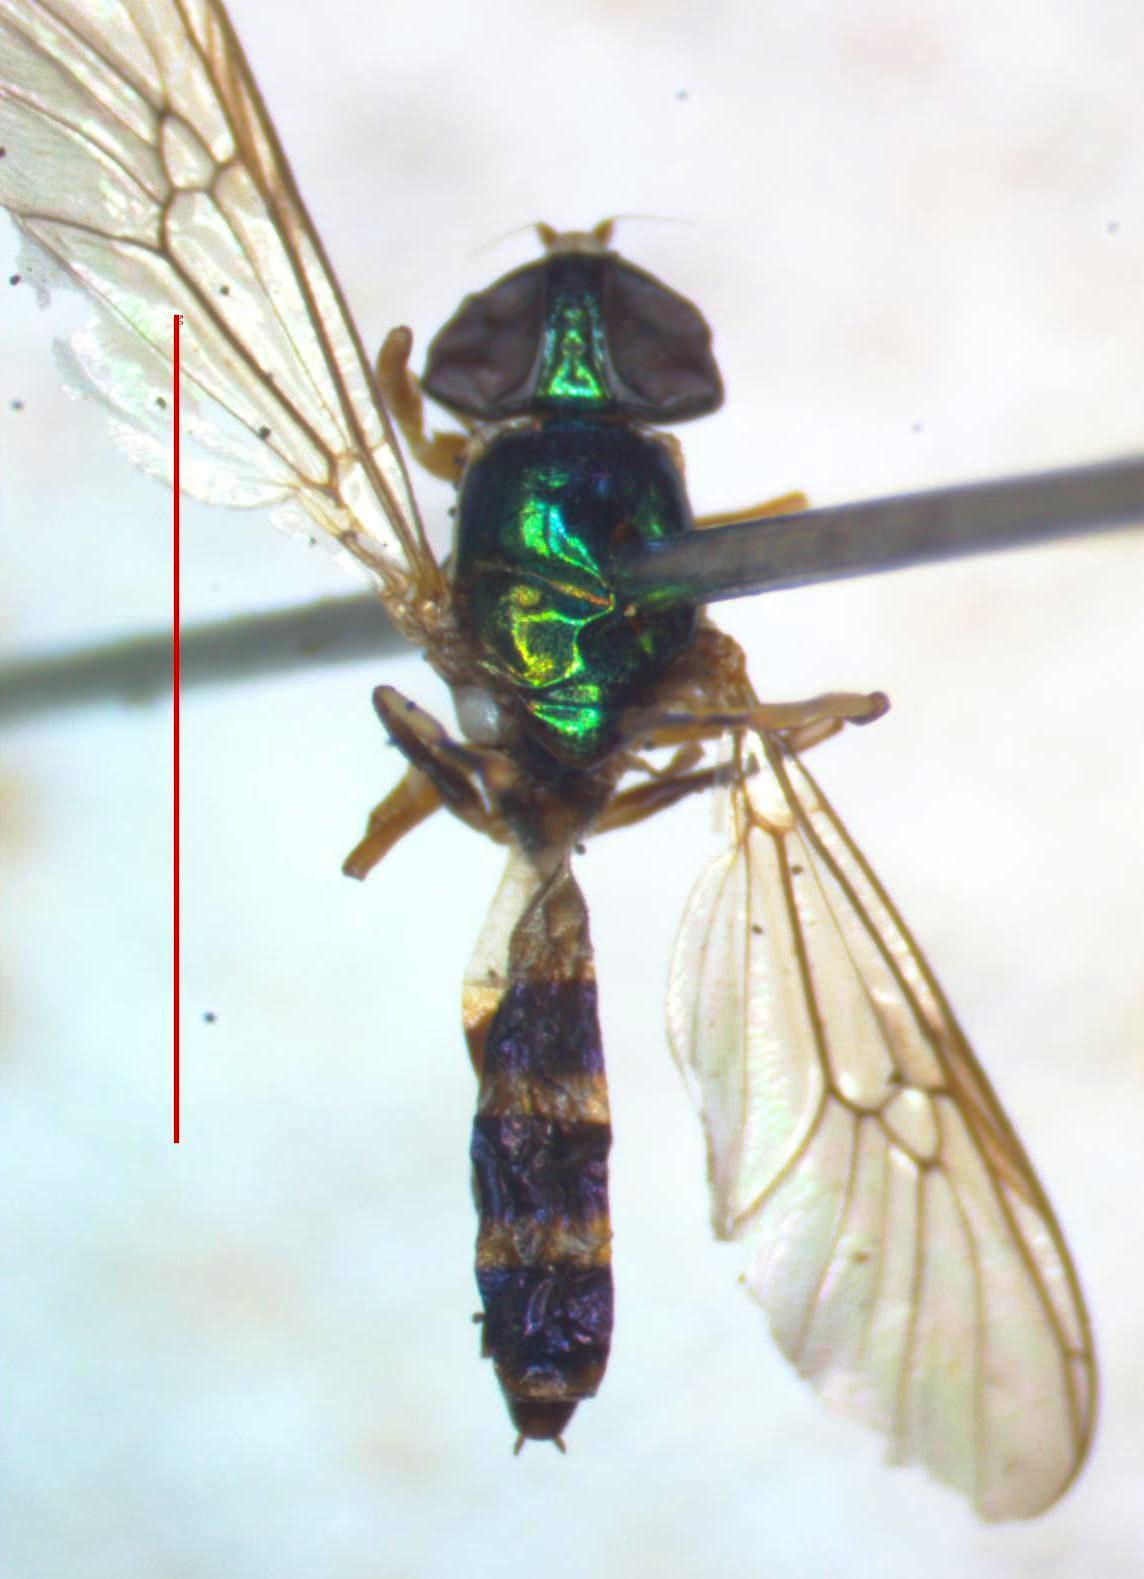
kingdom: Animalia
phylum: Arthropoda
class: Insecta
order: Diptera
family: Stratiomyidae
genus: Sargus
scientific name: Sargus fasciatus
